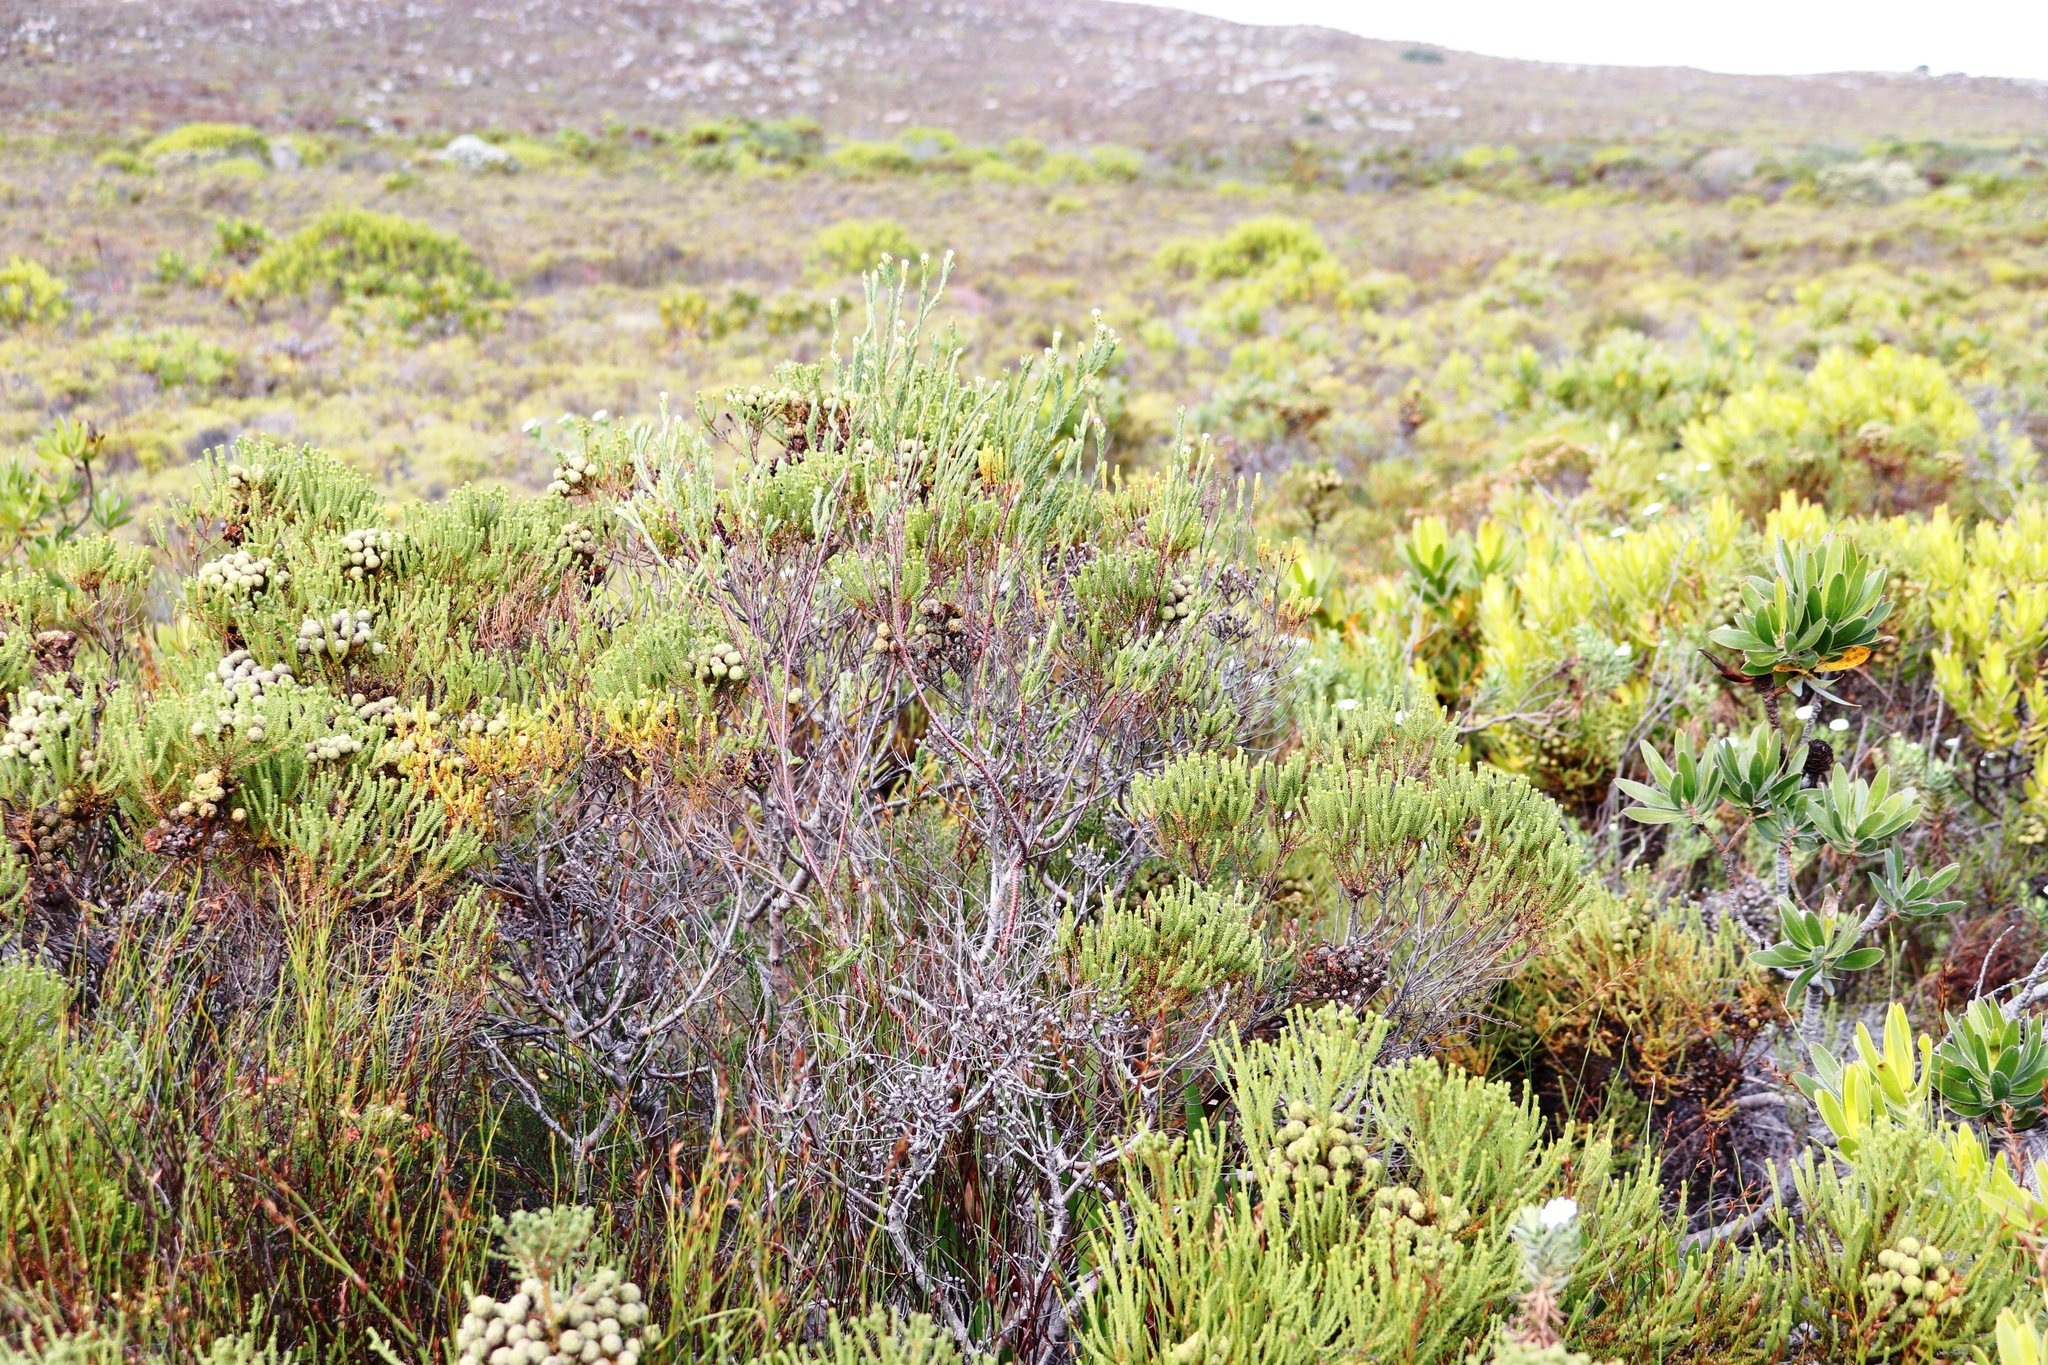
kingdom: Plantae
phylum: Tracheophyta
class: Magnoliopsida
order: Malvales
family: Thymelaeaceae
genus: Gnidia
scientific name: Gnidia oppositifolia
